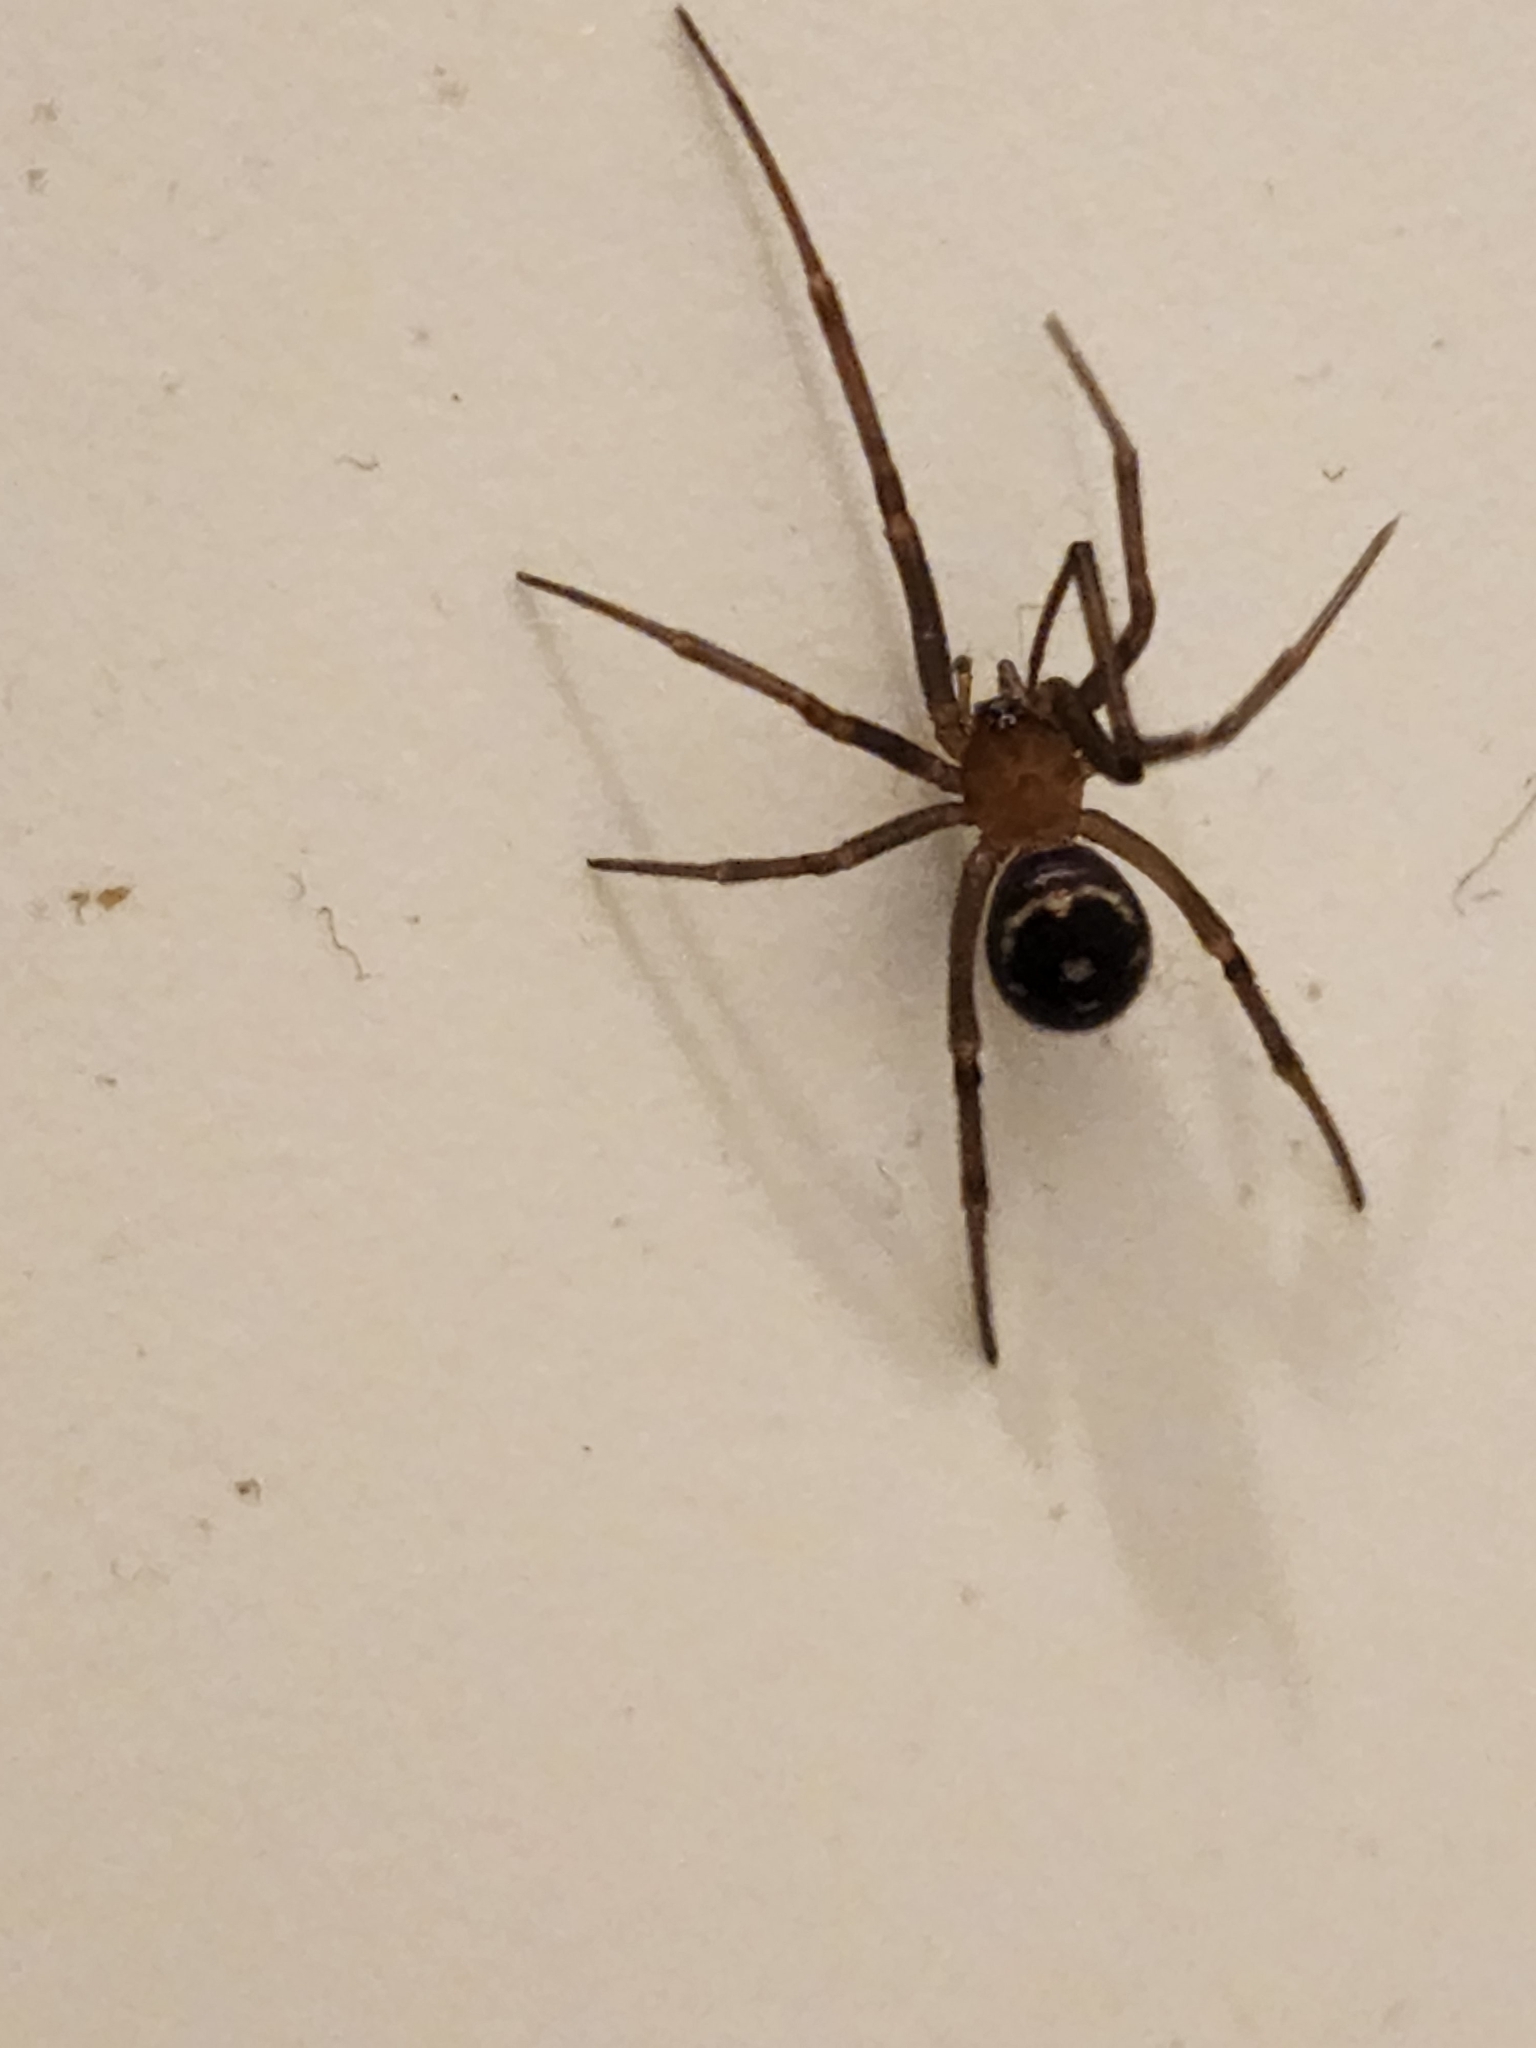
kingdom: Animalia
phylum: Arthropoda
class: Arachnida
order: Araneae
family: Theridiidae
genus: Steatoda
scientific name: Steatoda grossa
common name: False black widow
